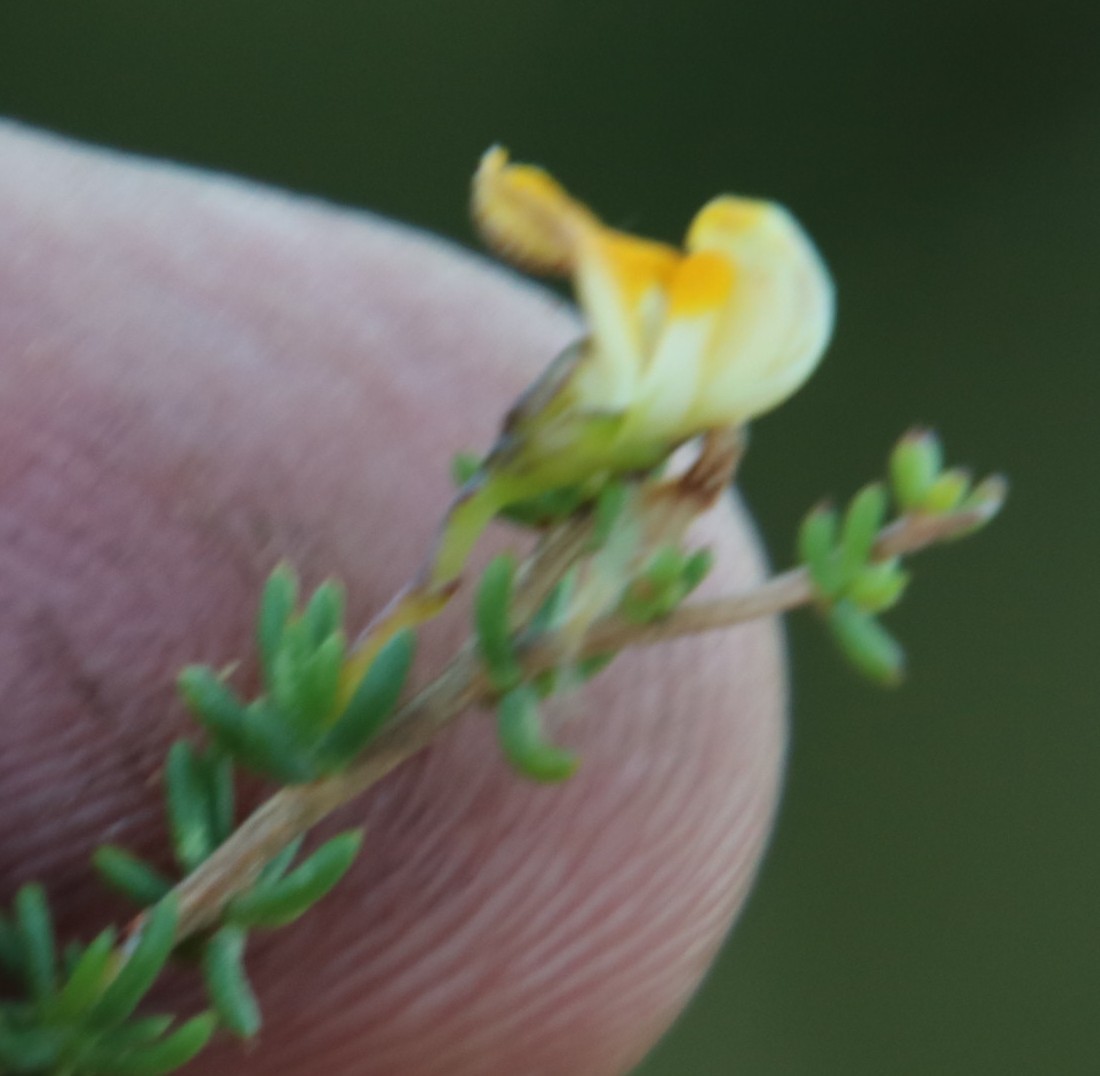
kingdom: Plantae
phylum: Tracheophyta
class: Magnoliopsida
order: Fabales
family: Fabaceae
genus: Aspalathus
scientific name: Aspalathus biflora
